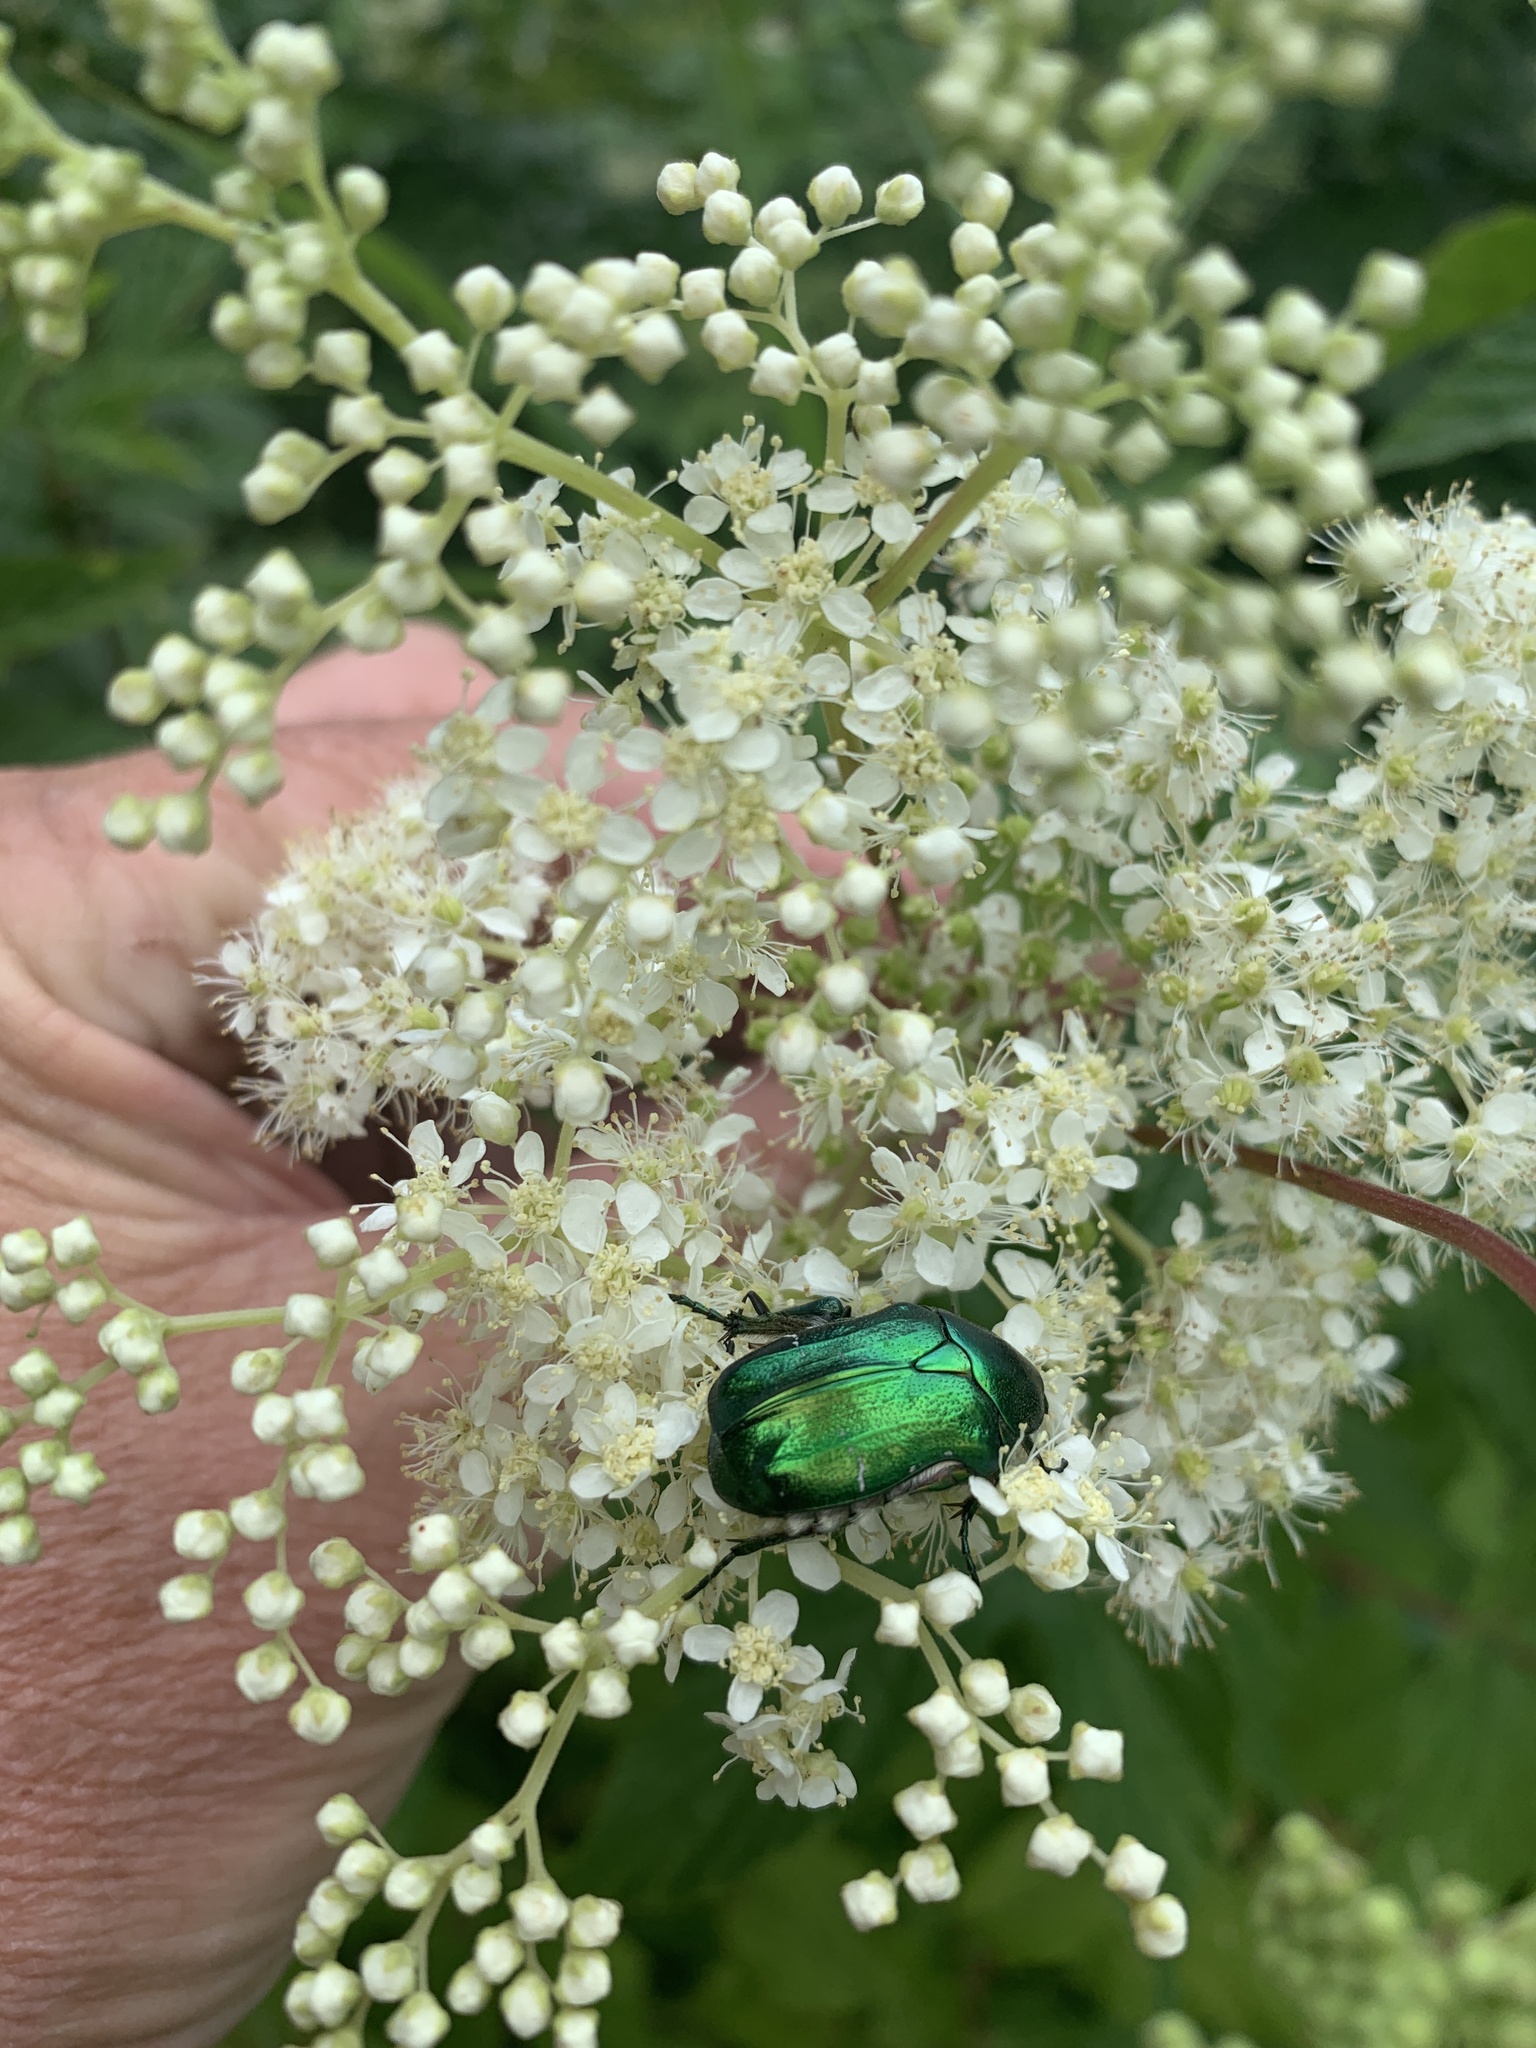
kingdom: Animalia
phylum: Arthropoda
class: Insecta
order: Coleoptera
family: Scarabaeidae
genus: Cetonia
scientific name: Cetonia aurata
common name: Rose chafer
